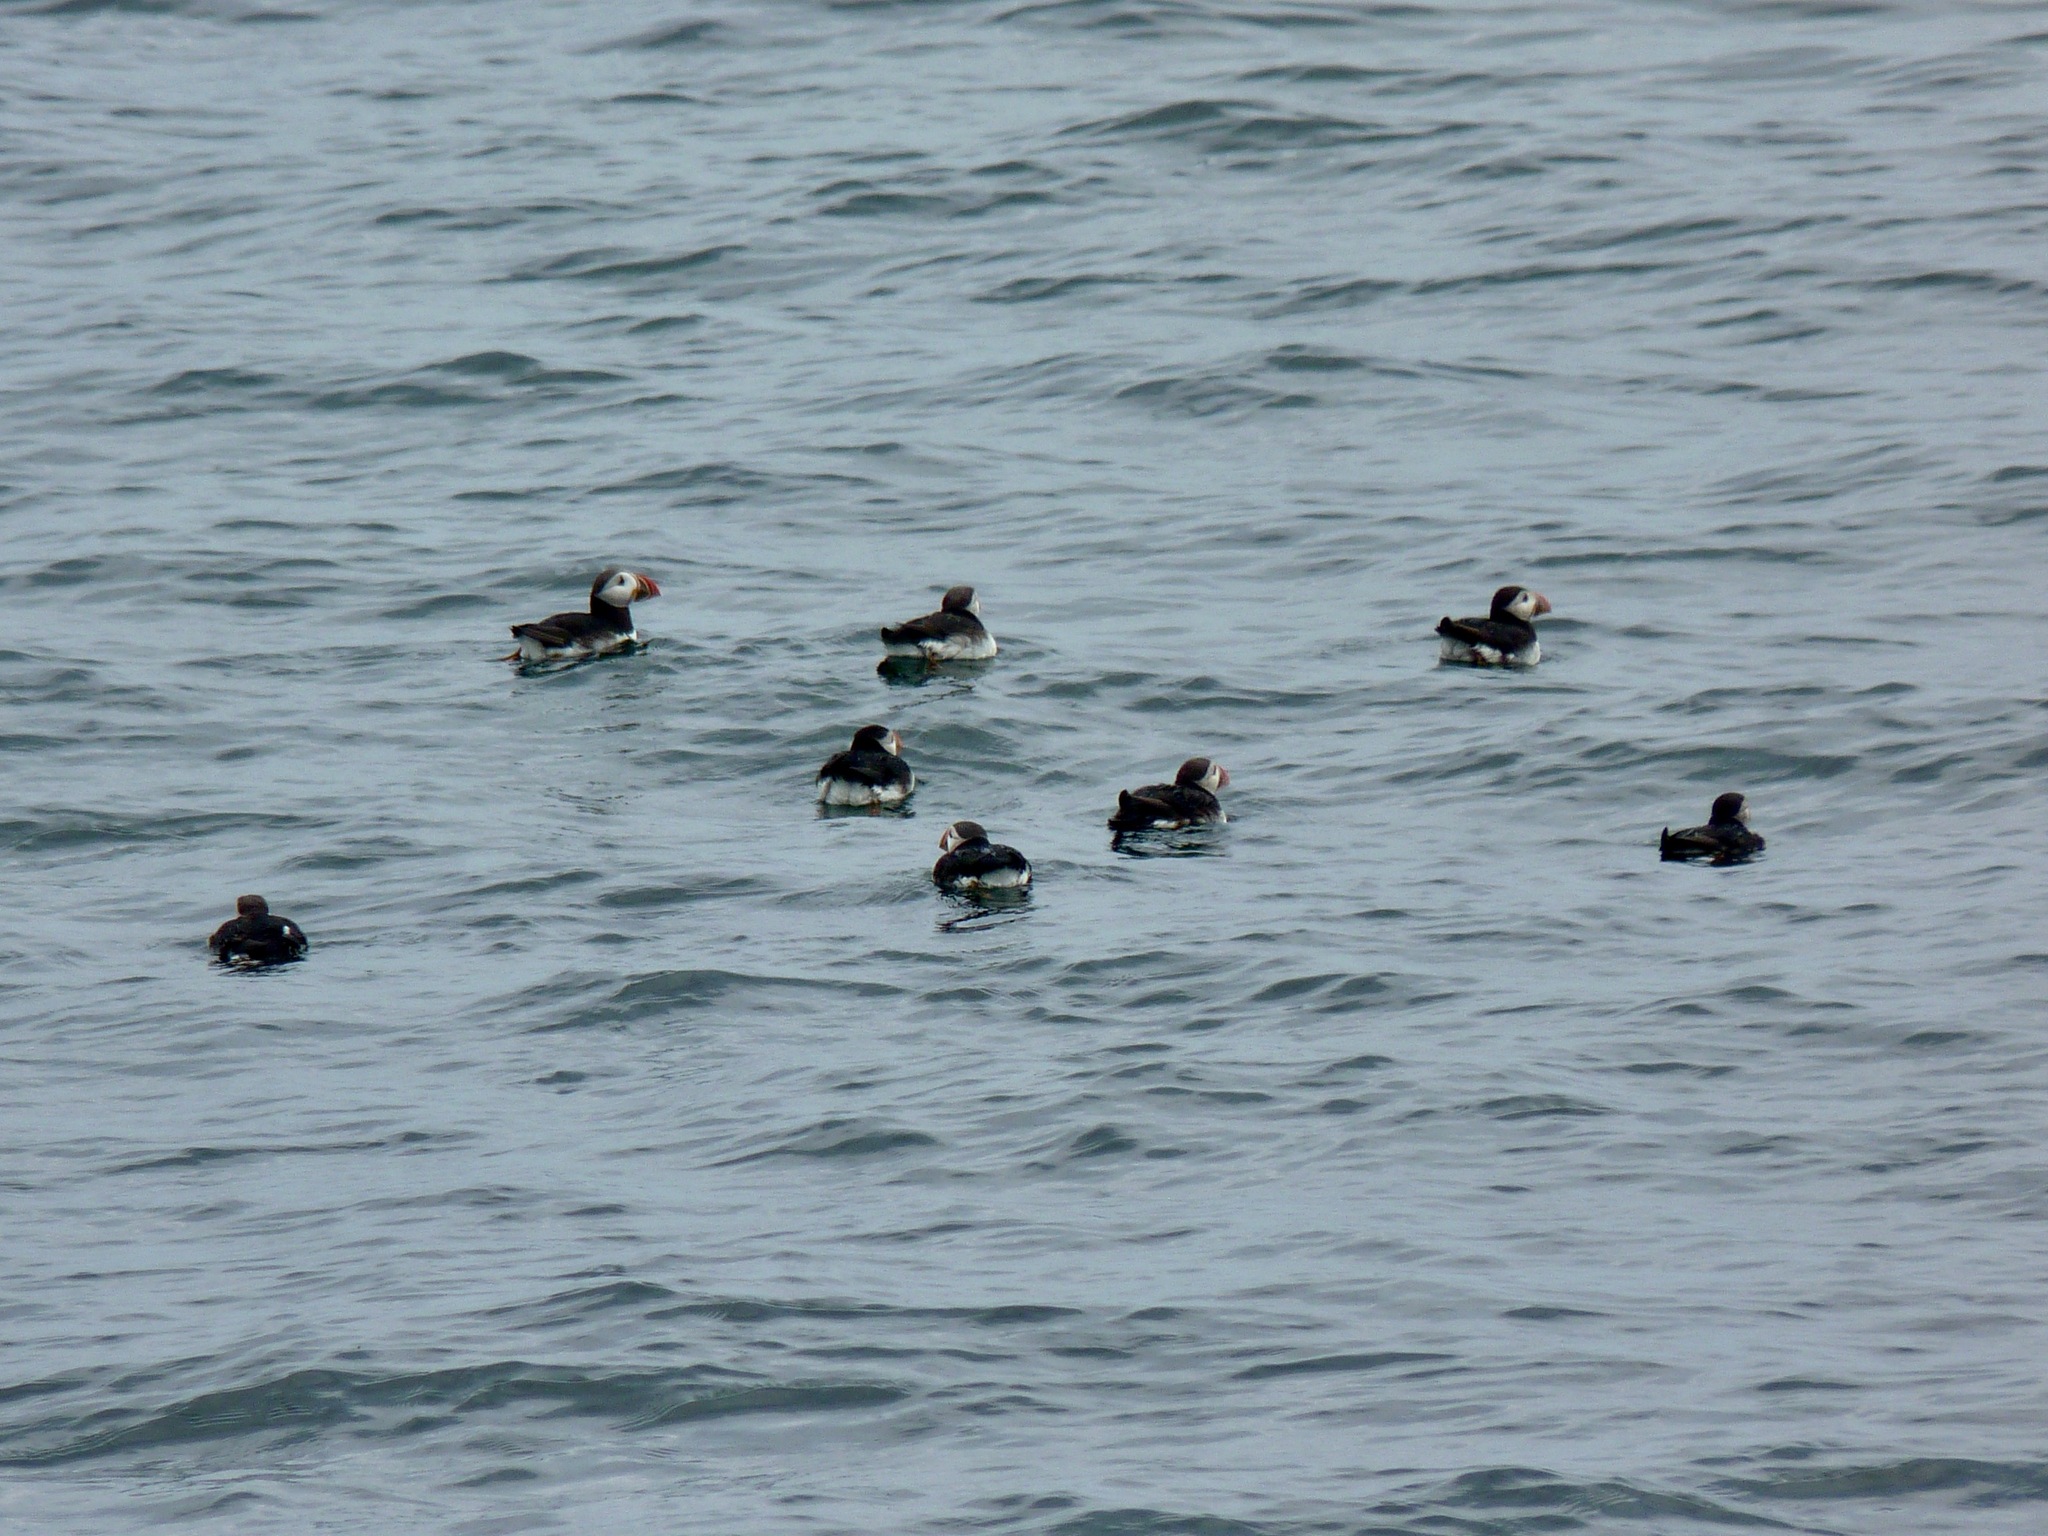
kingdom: Animalia
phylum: Chordata
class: Aves
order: Charadriiformes
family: Alcidae
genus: Fratercula
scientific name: Fratercula arctica
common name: Atlantic puffin
